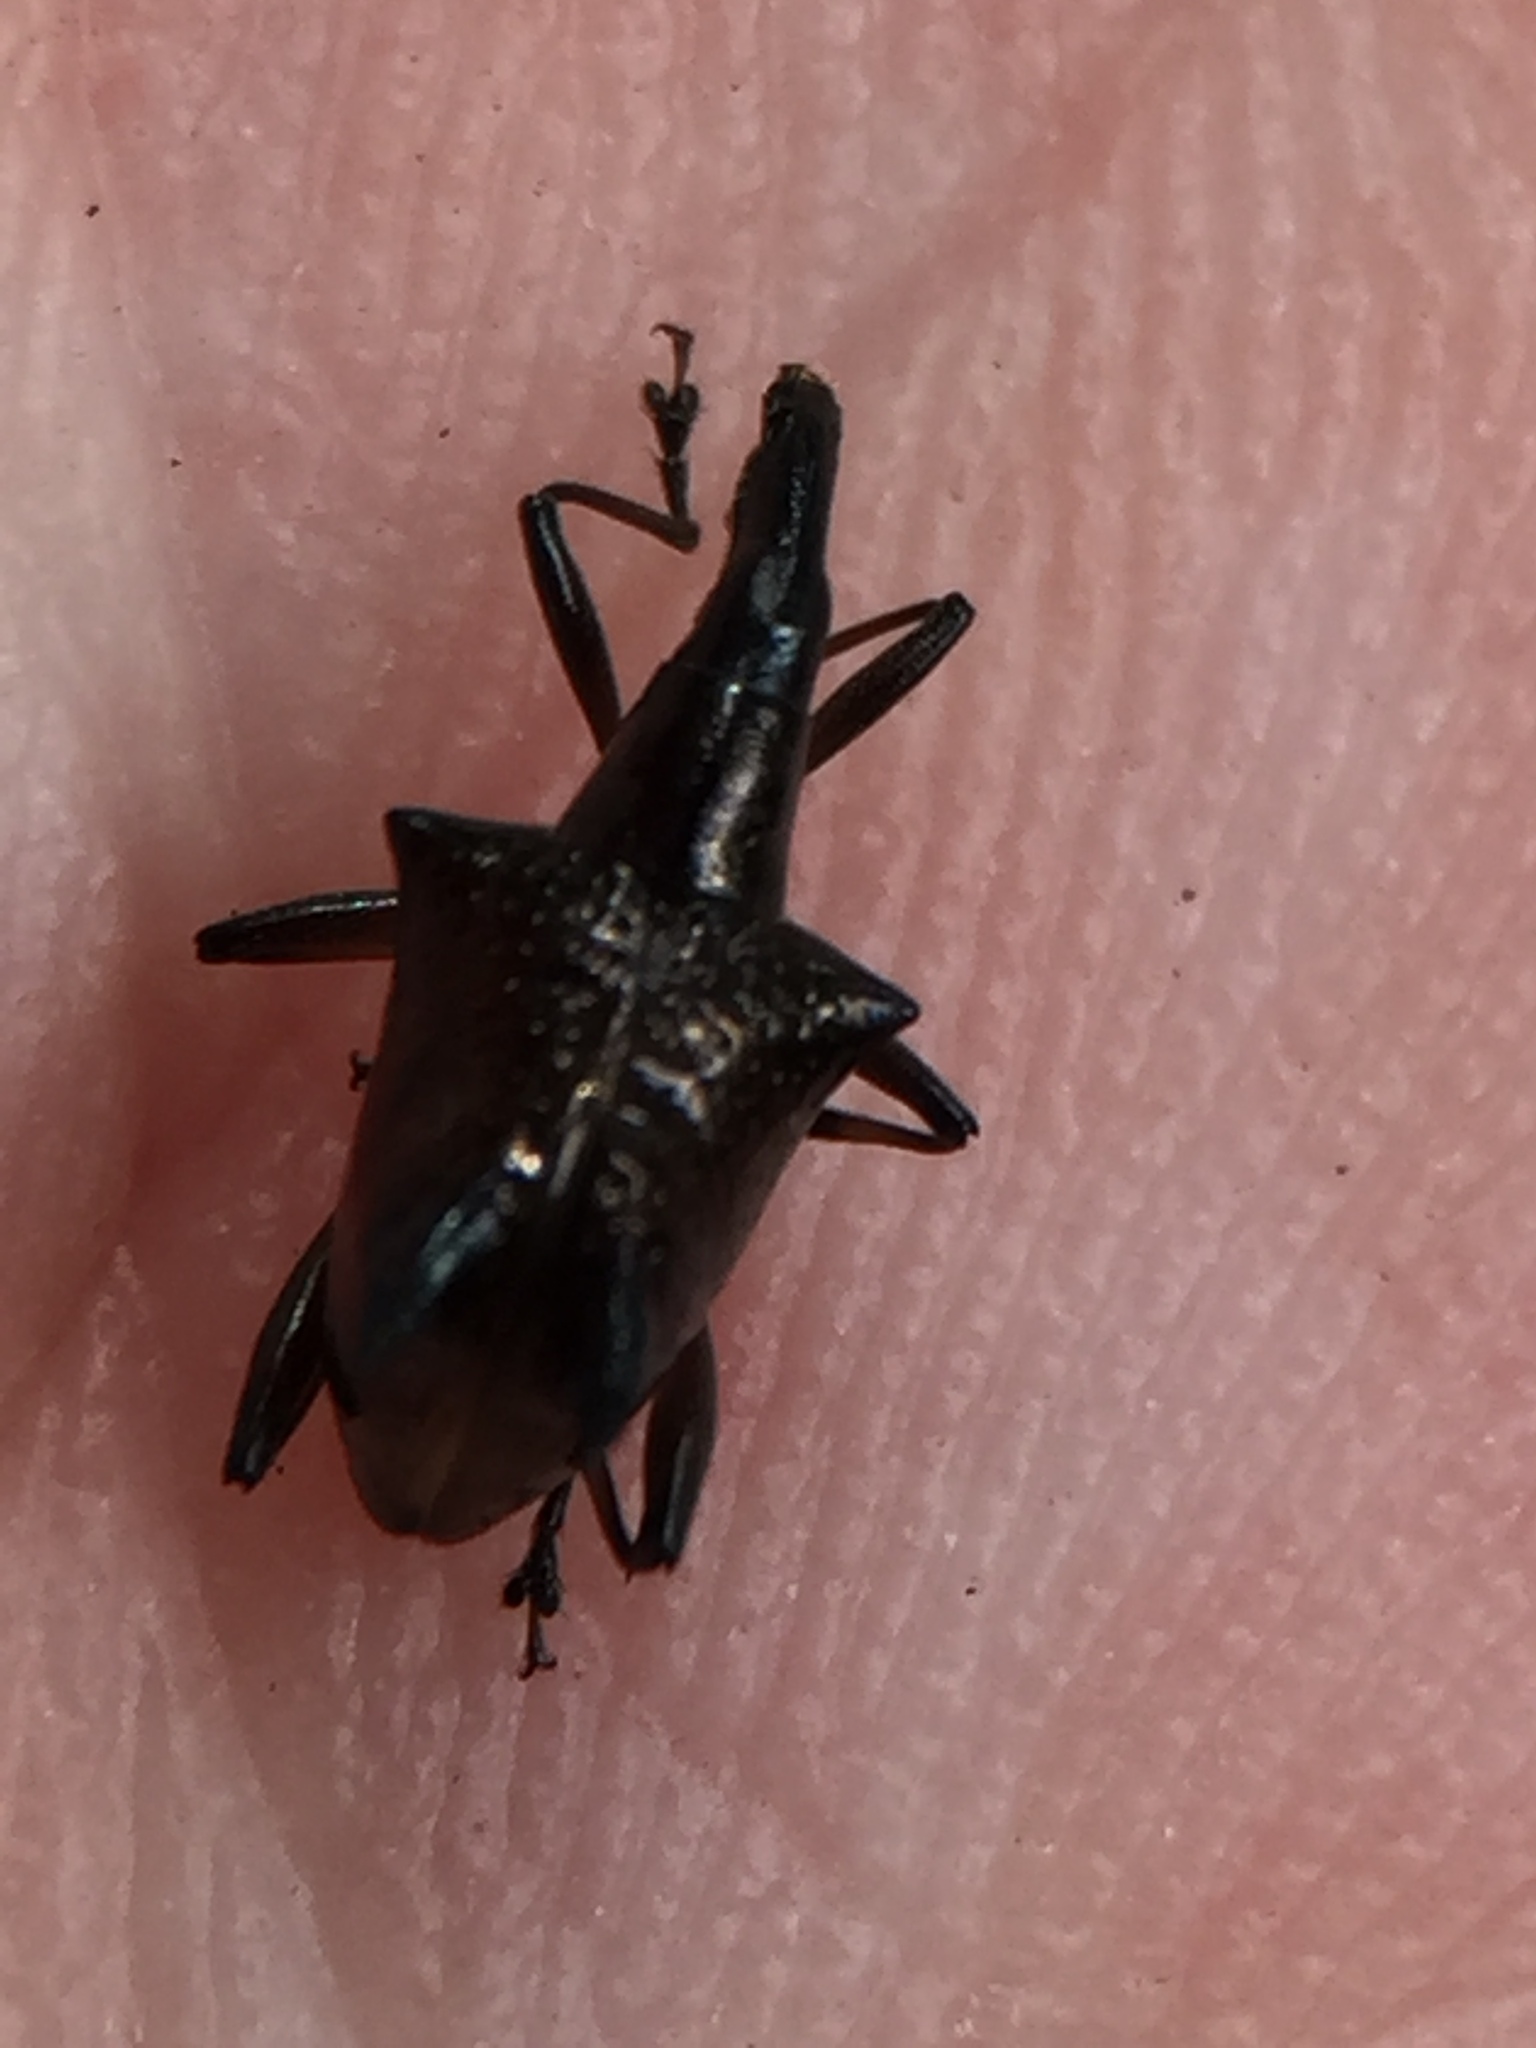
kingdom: Animalia
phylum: Arthropoda
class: Insecta
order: Coleoptera
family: Curculionidae
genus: Scolopterus
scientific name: Scolopterus tetracanthus
